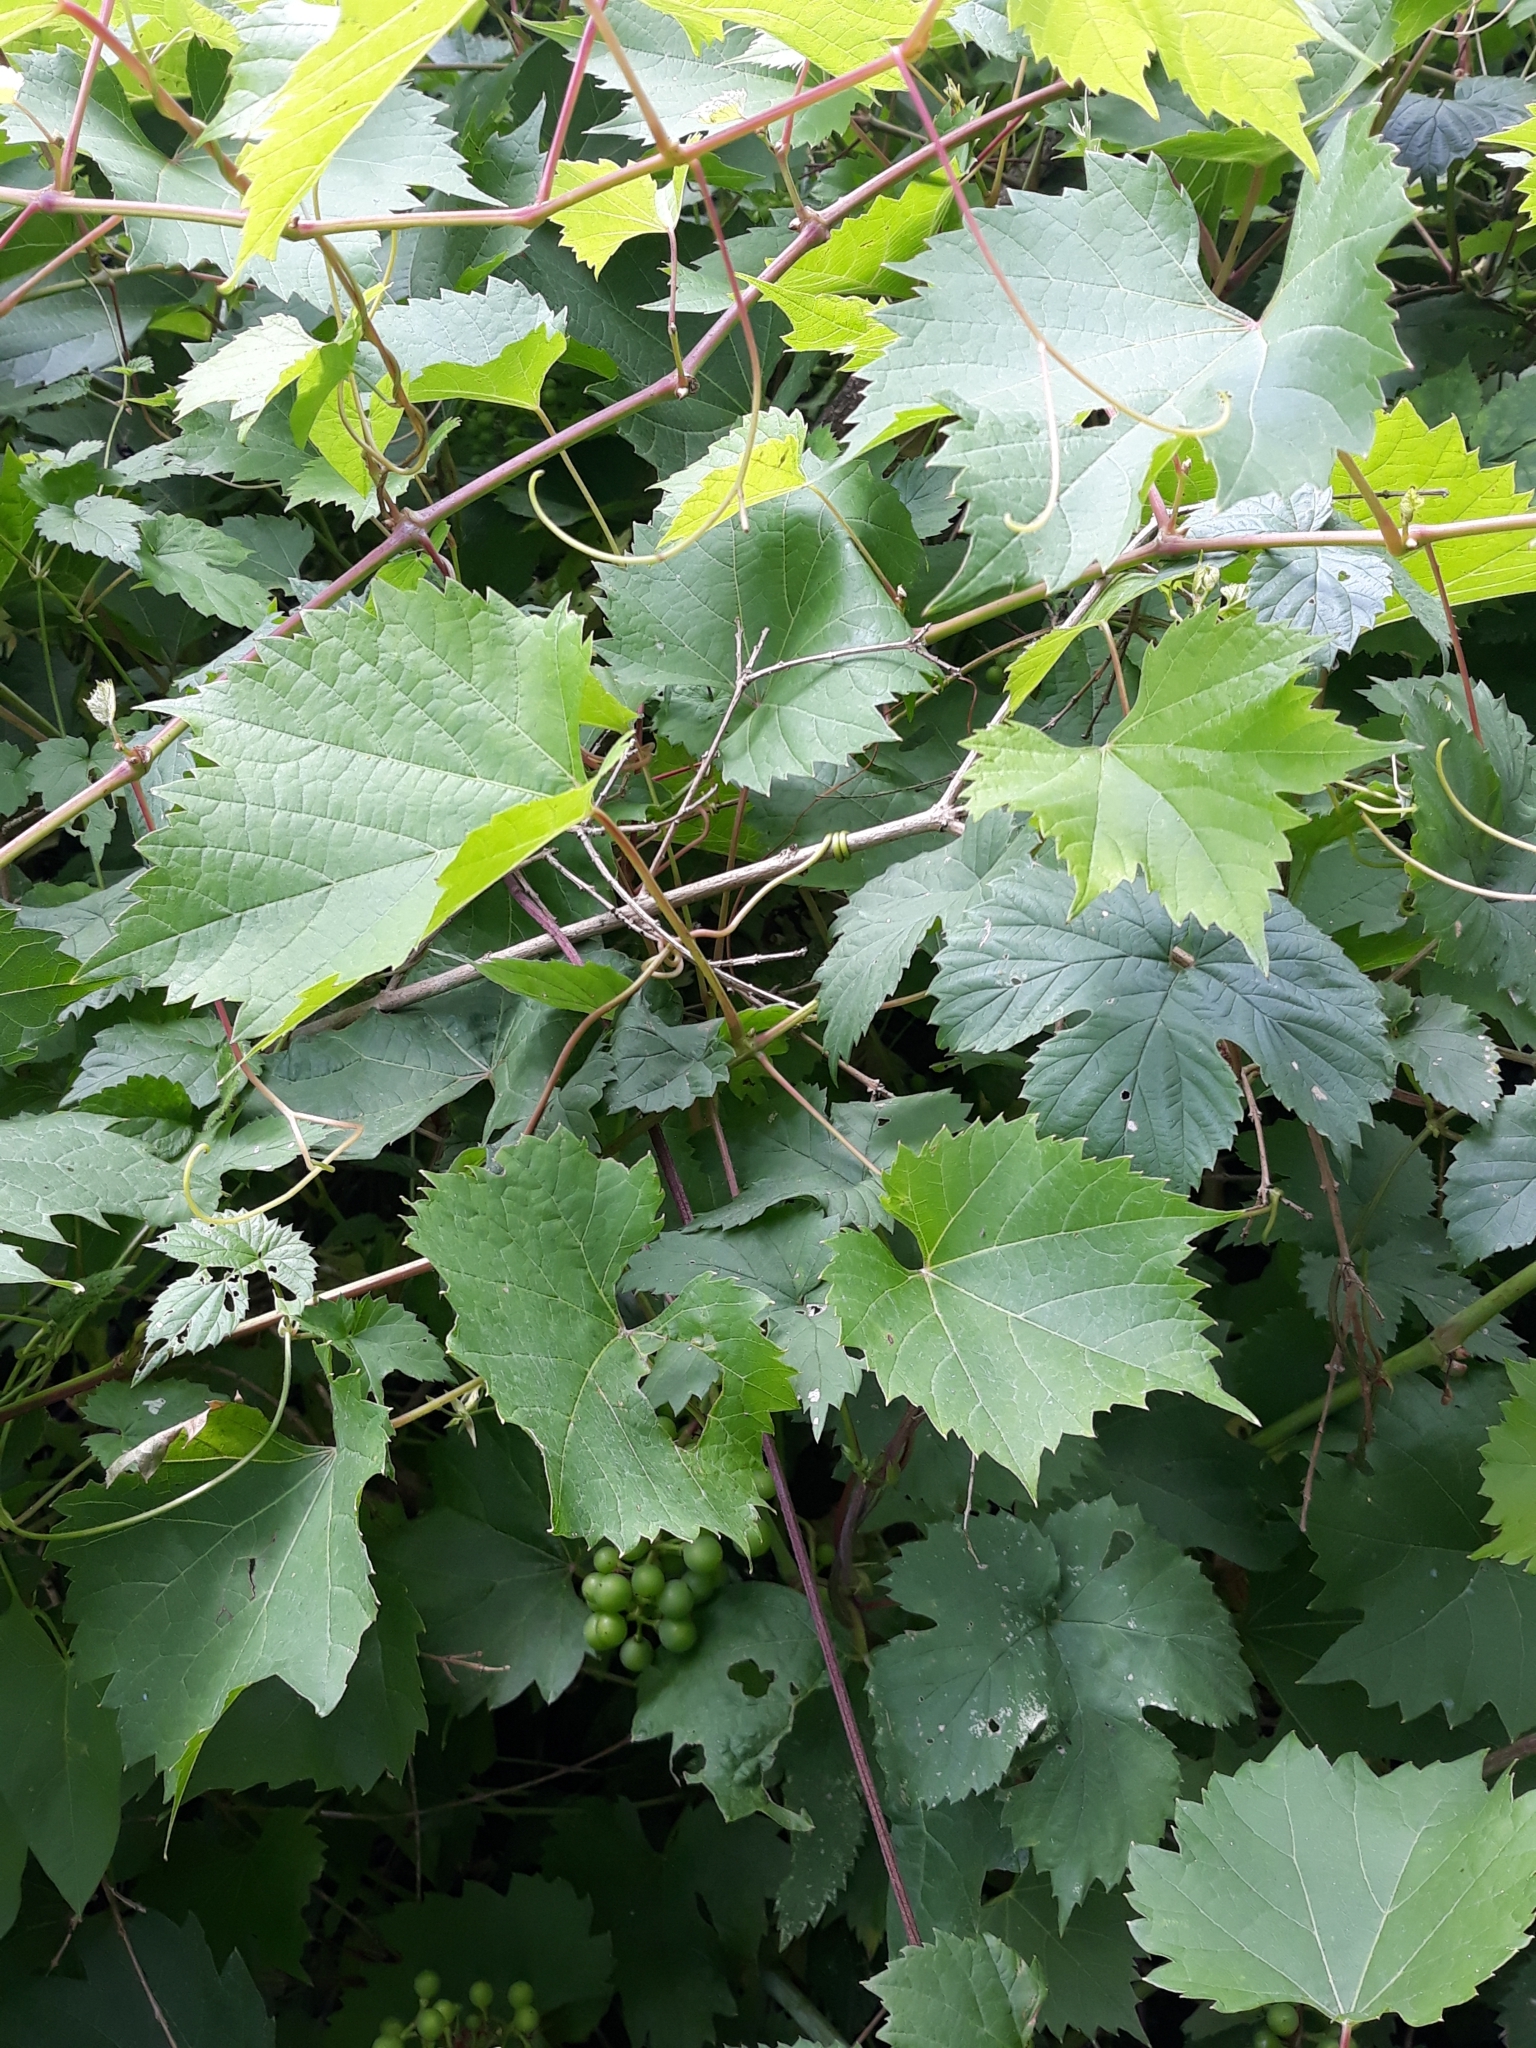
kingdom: Plantae
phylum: Tracheophyta
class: Magnoliopsida
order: Vitales
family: Vitaceae
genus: Vitis
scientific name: Vitis vinifera
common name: Grape-vine
